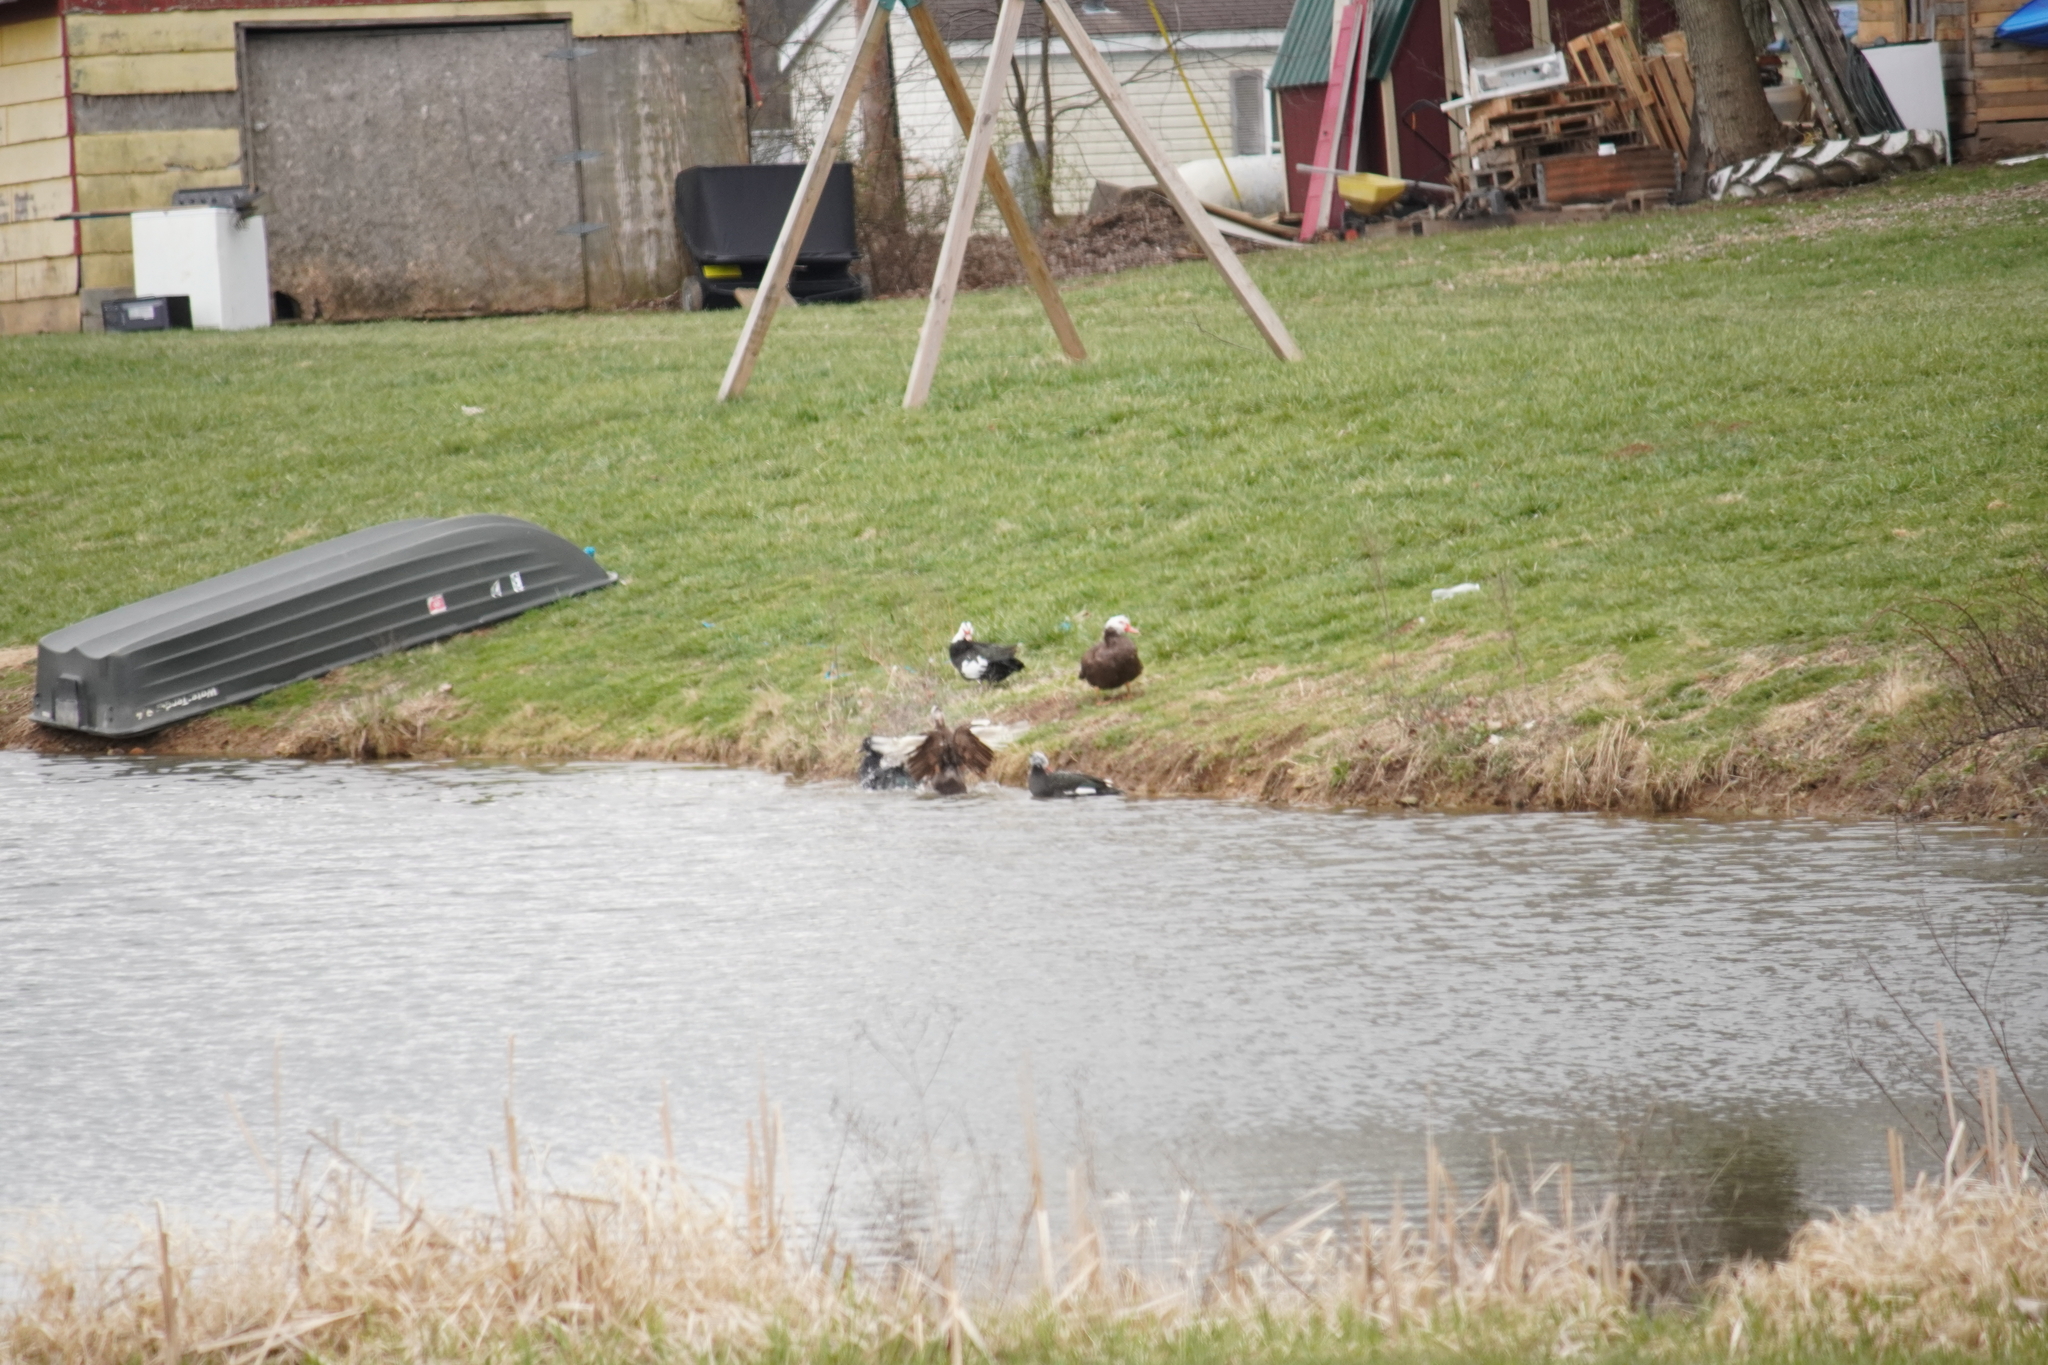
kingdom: Animalia
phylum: Chordata
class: Aves
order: Anseriformes
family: Anatidae
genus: Cairina
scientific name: Cairina moschata
